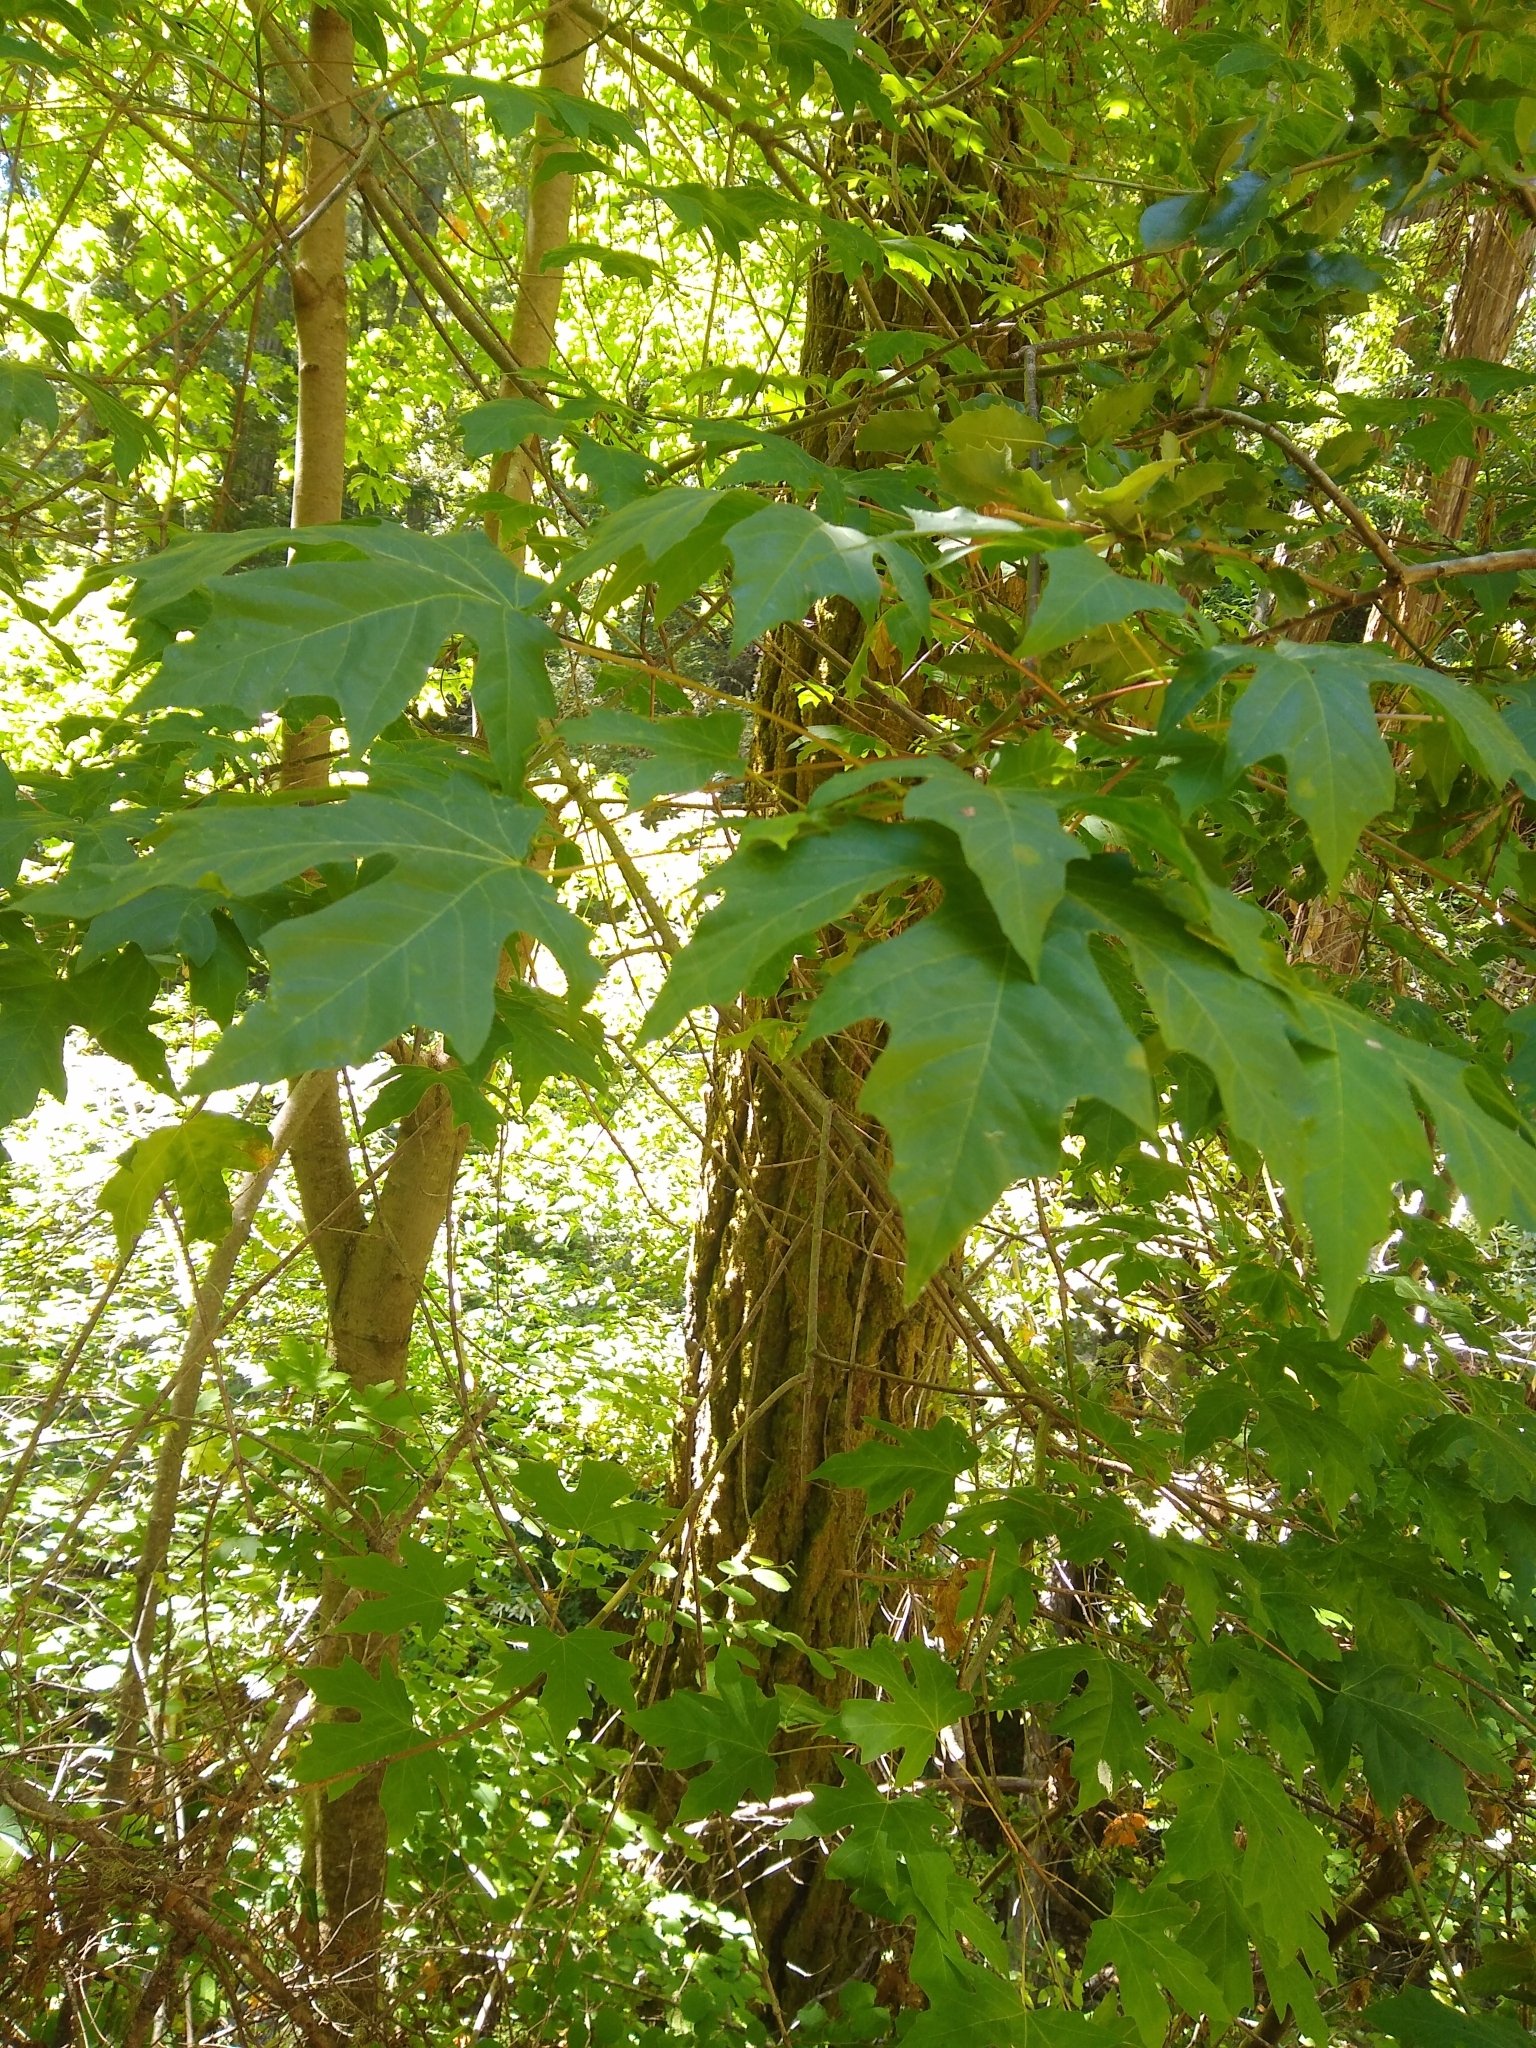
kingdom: Plantae
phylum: Tracheophyta
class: Magnoliopsida
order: Sapindales
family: Sapindaceae
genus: Acer
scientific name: Acer macrophyllum
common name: Oregon maple
